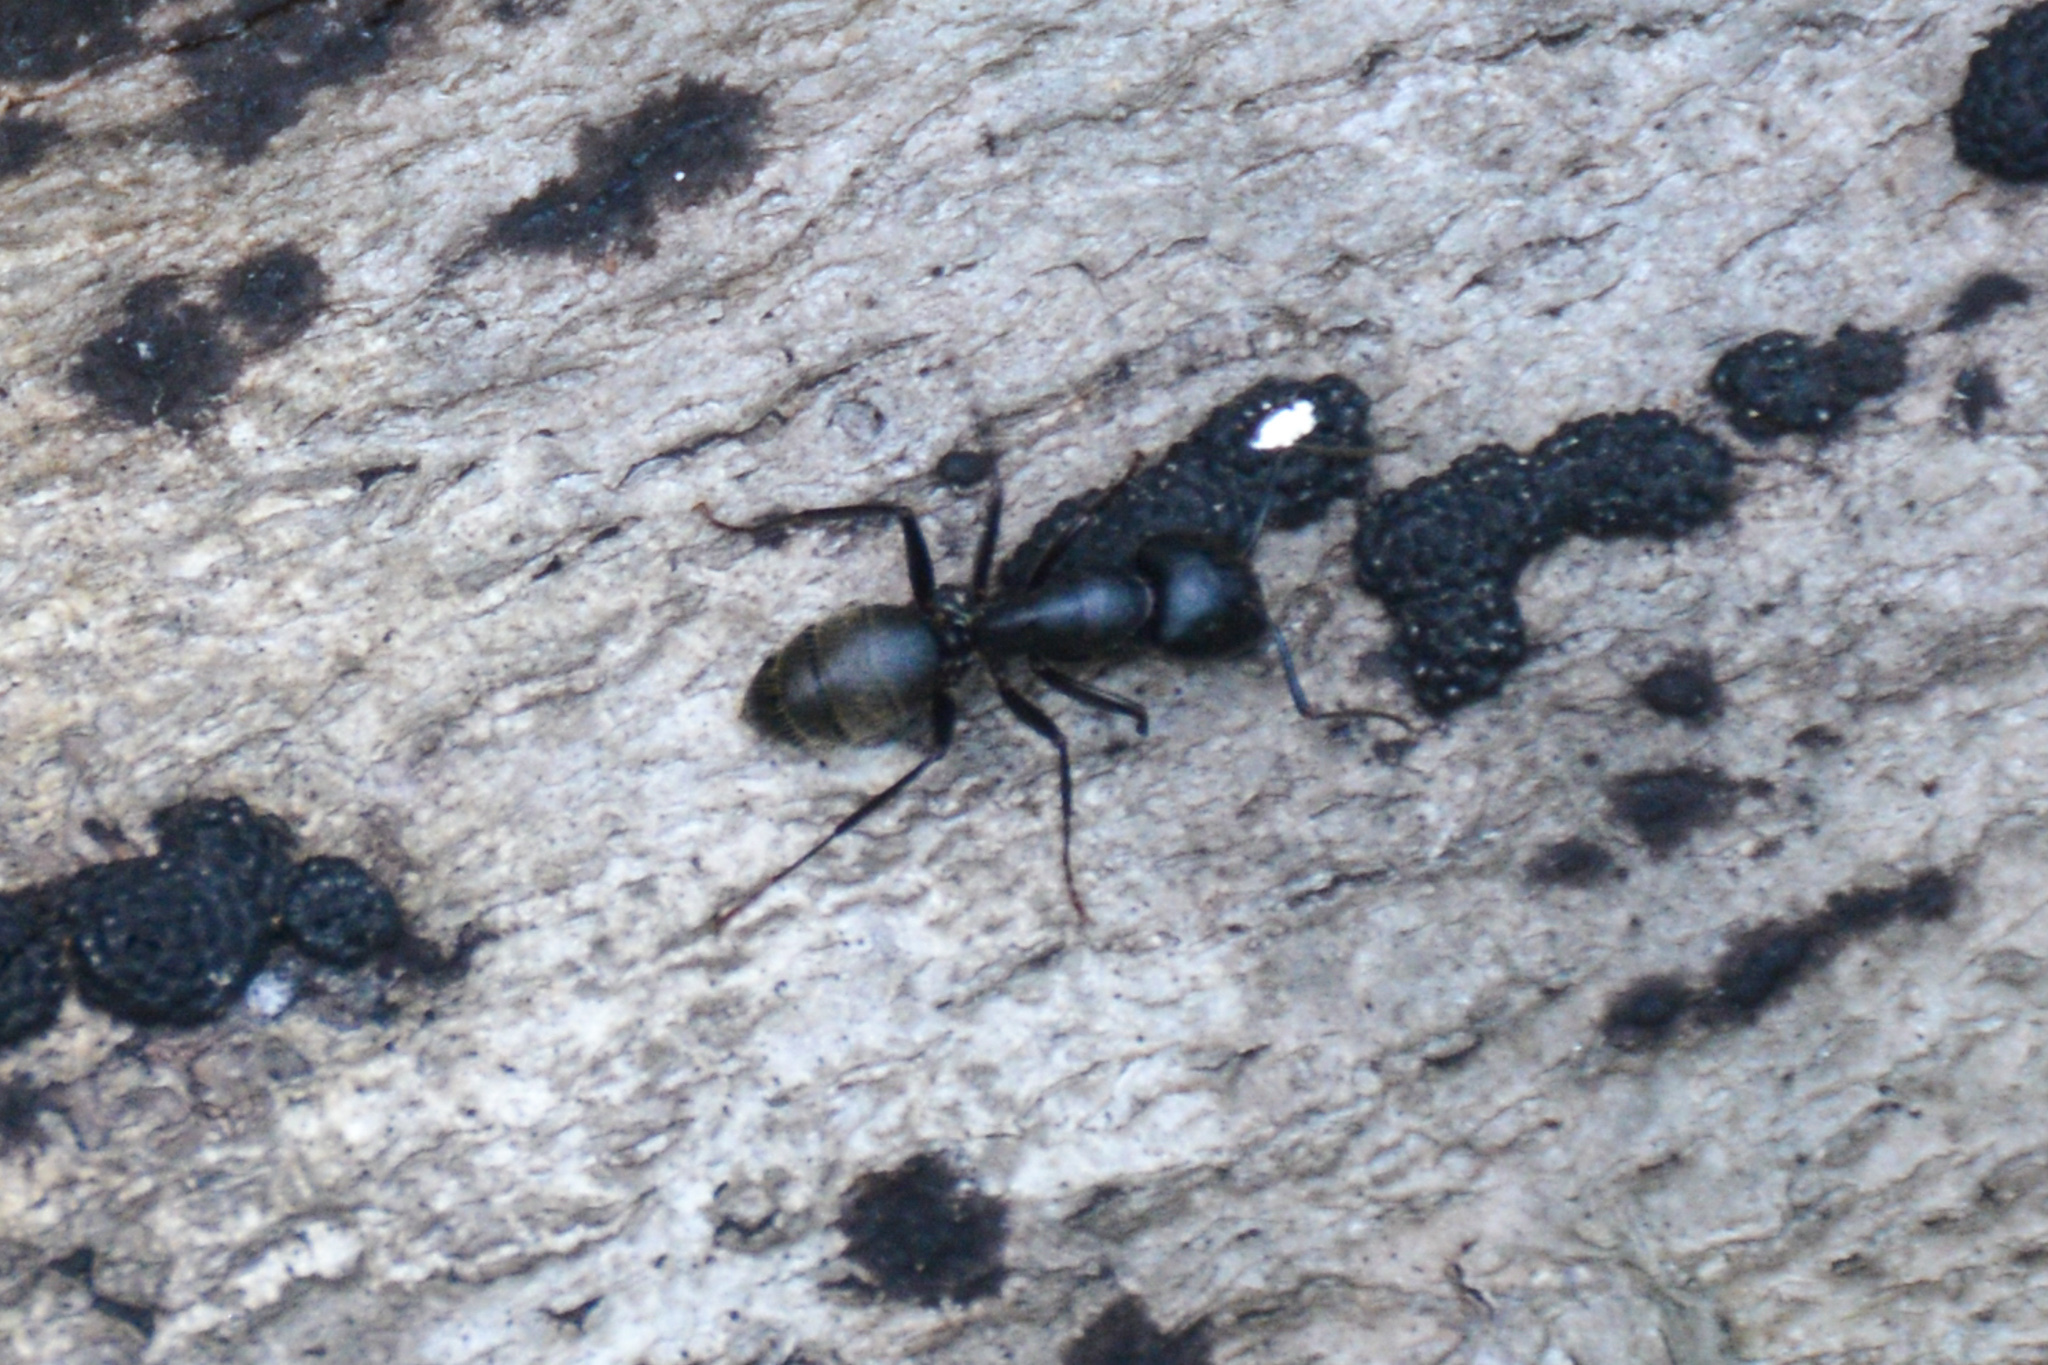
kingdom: Animalia
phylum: Arthropoda
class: Insecta
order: Hymenoptera
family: Formicidae
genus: Camponotus
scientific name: Camponotus pennsylvanicus
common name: Black carpenter ant
